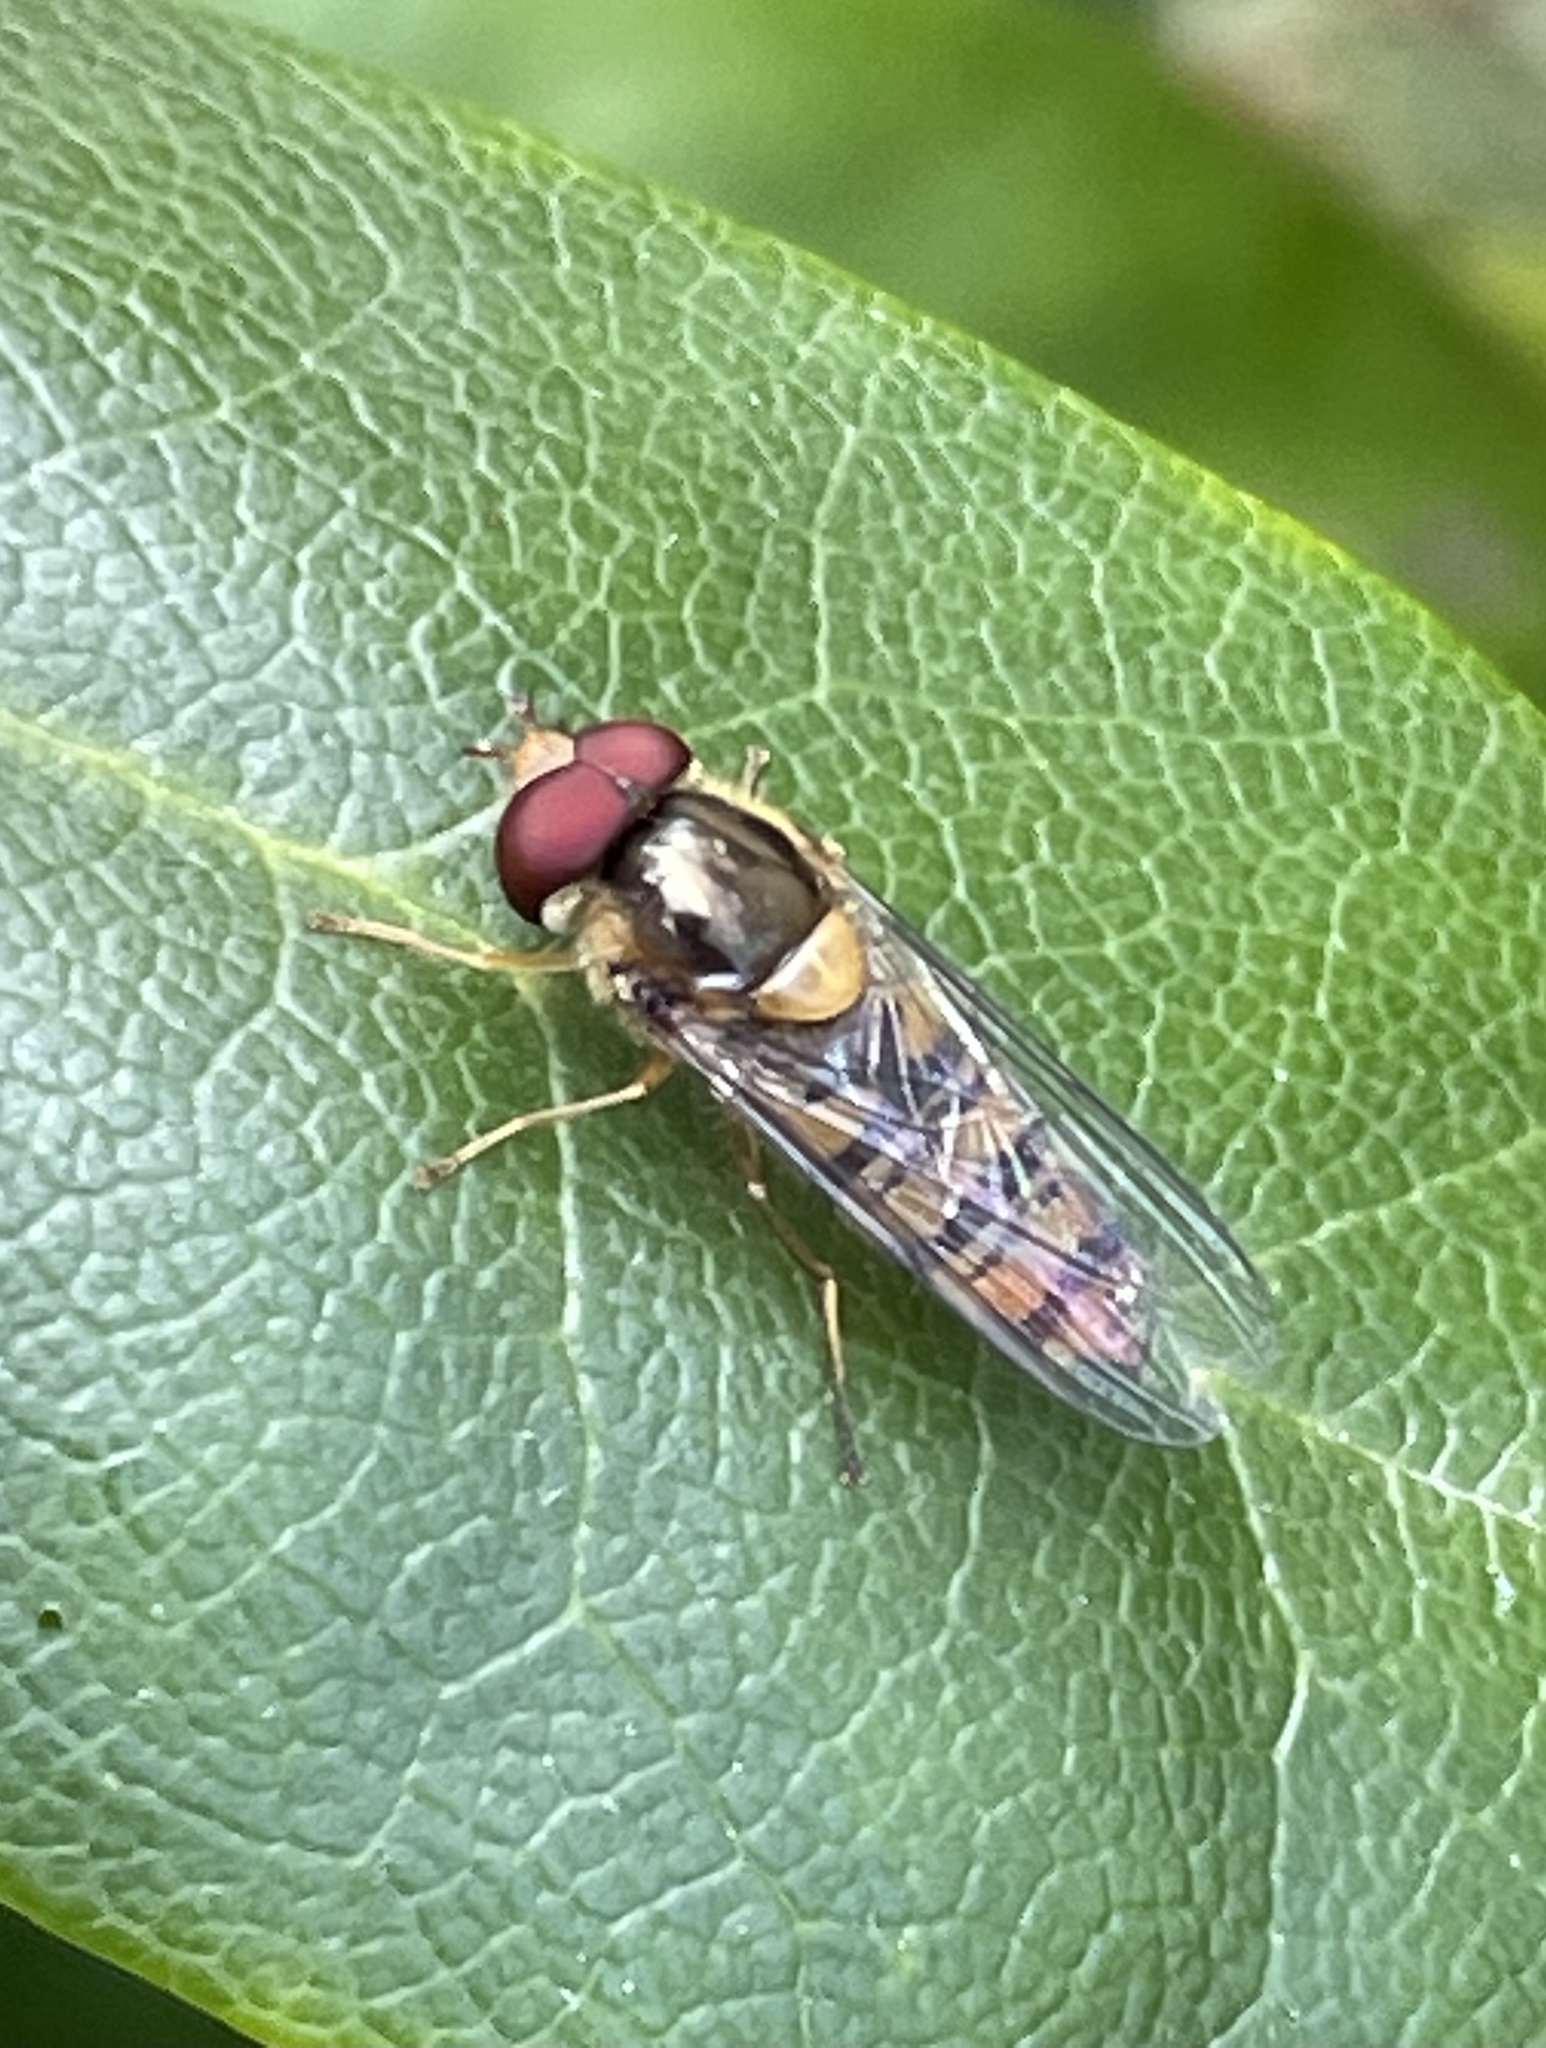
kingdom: Animalia
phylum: Arthropoda
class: Insecta
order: Diptera
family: Syrphidae
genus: Episyrphus
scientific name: Episyrphus balteatus
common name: Marmalade hoverfly
